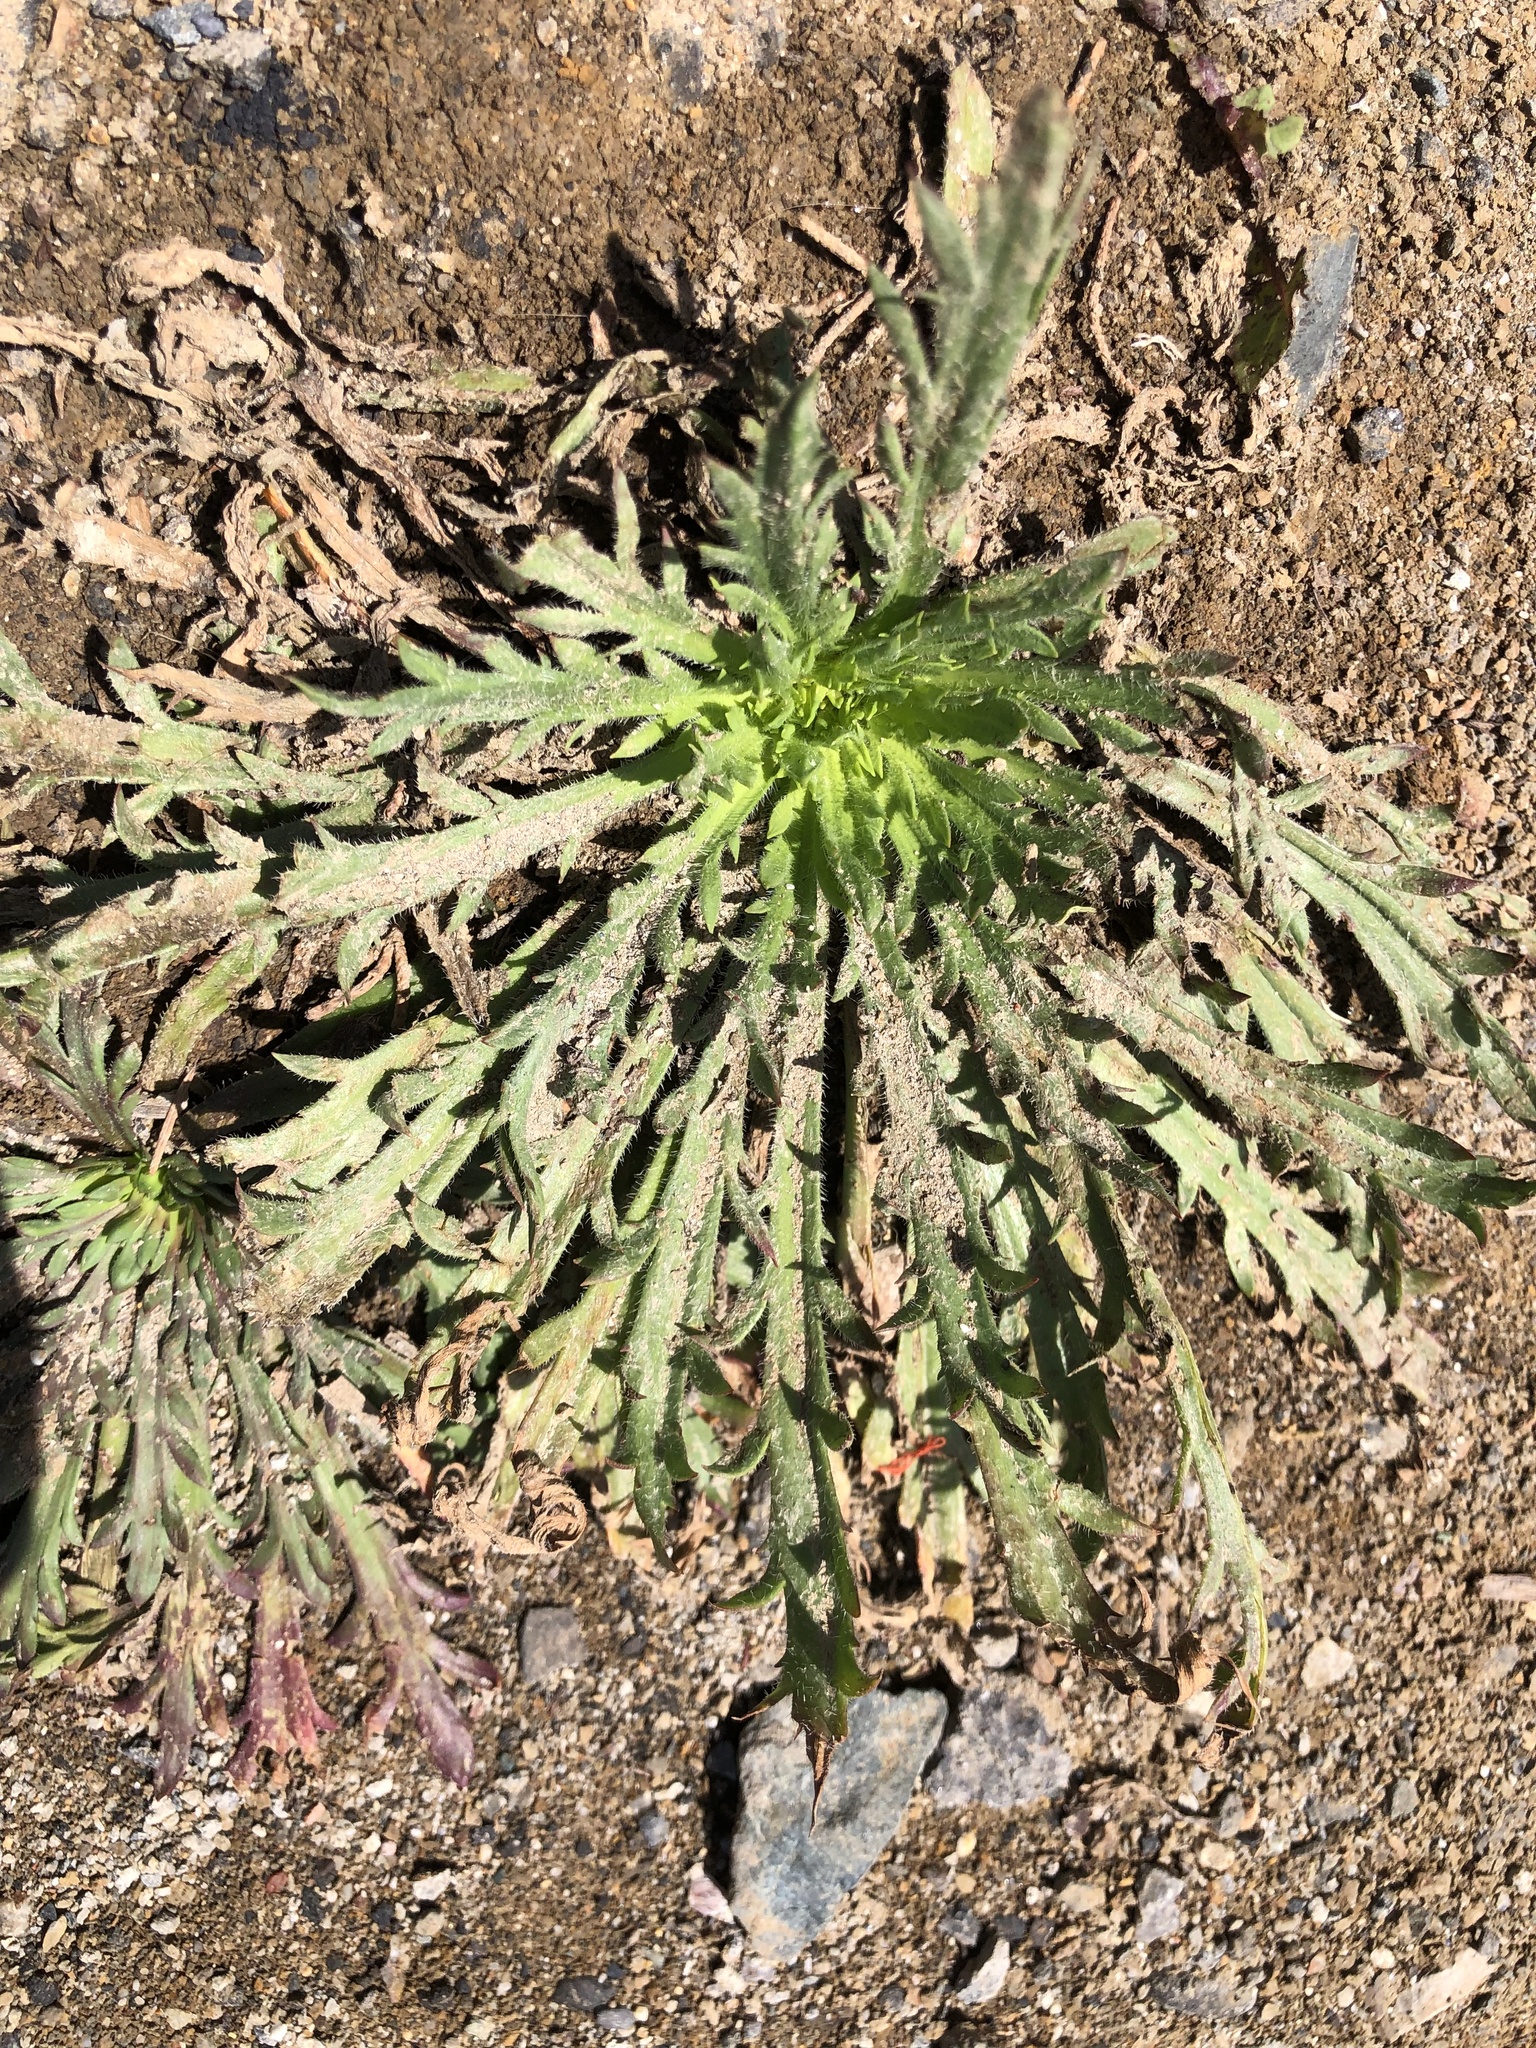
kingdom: Plantae
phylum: Tracheophyta
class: Magnoliopsida
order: Lamiales
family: Plantaginaceae
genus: Plantago
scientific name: Plantago coronopus
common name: Buck's-horn plantain
